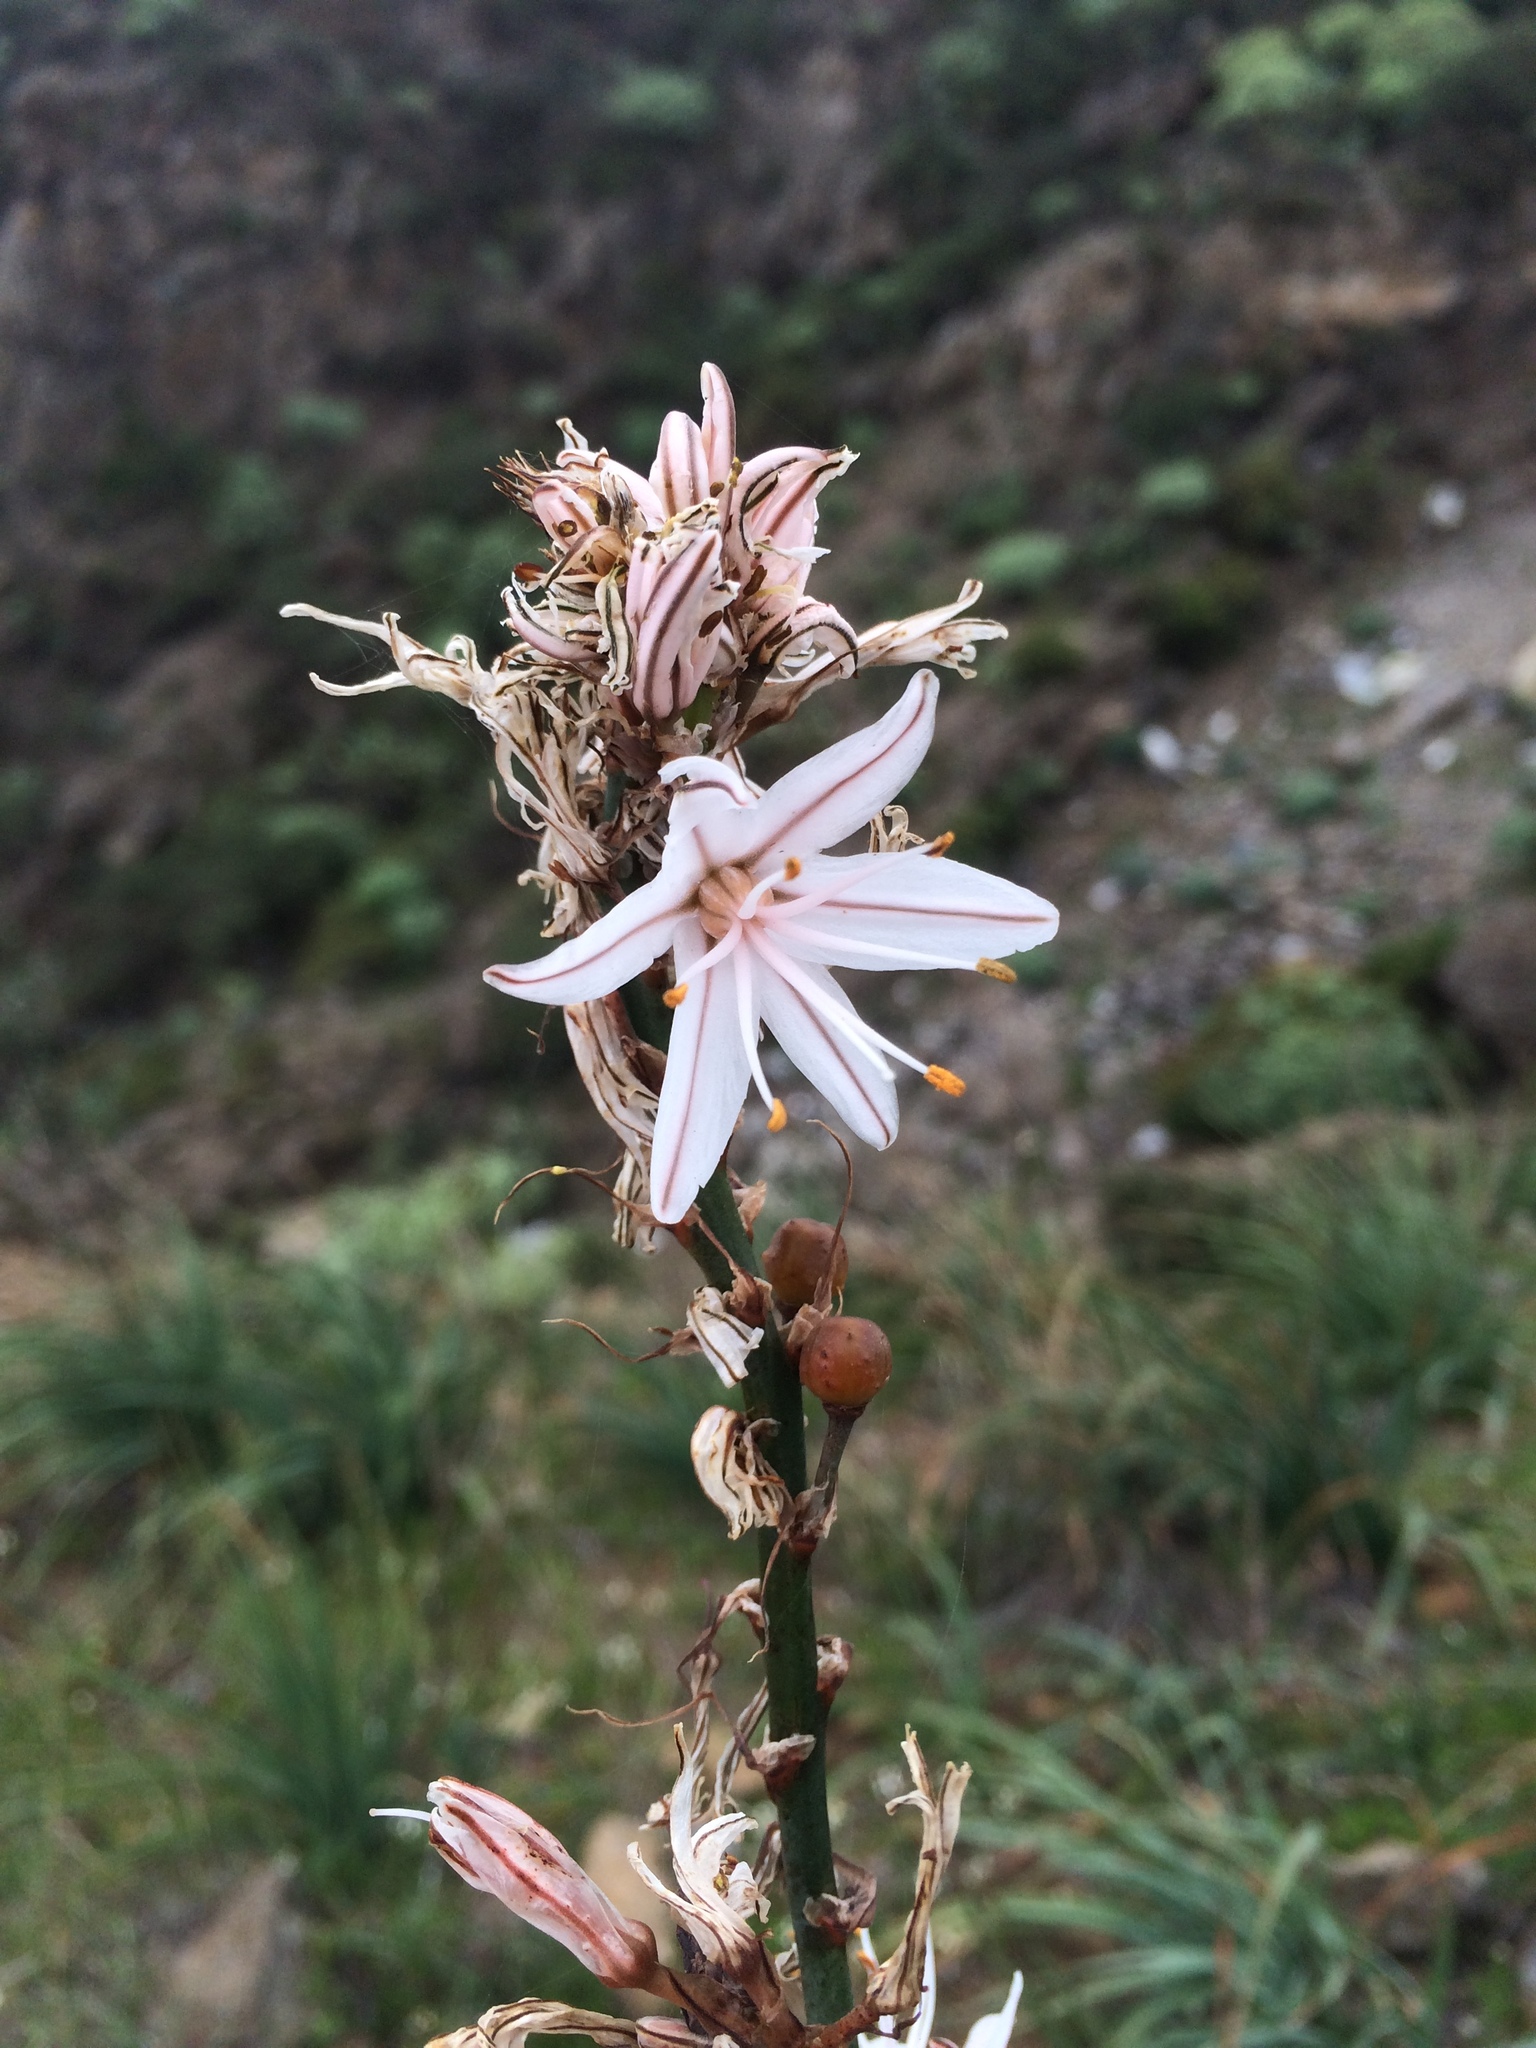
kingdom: Plantae
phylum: Tracheophyta
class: Liliopsida
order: Asparagales
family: Asphodelaceae
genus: Asphodelus
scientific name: Asphodelus ramosus
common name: Silverrod
